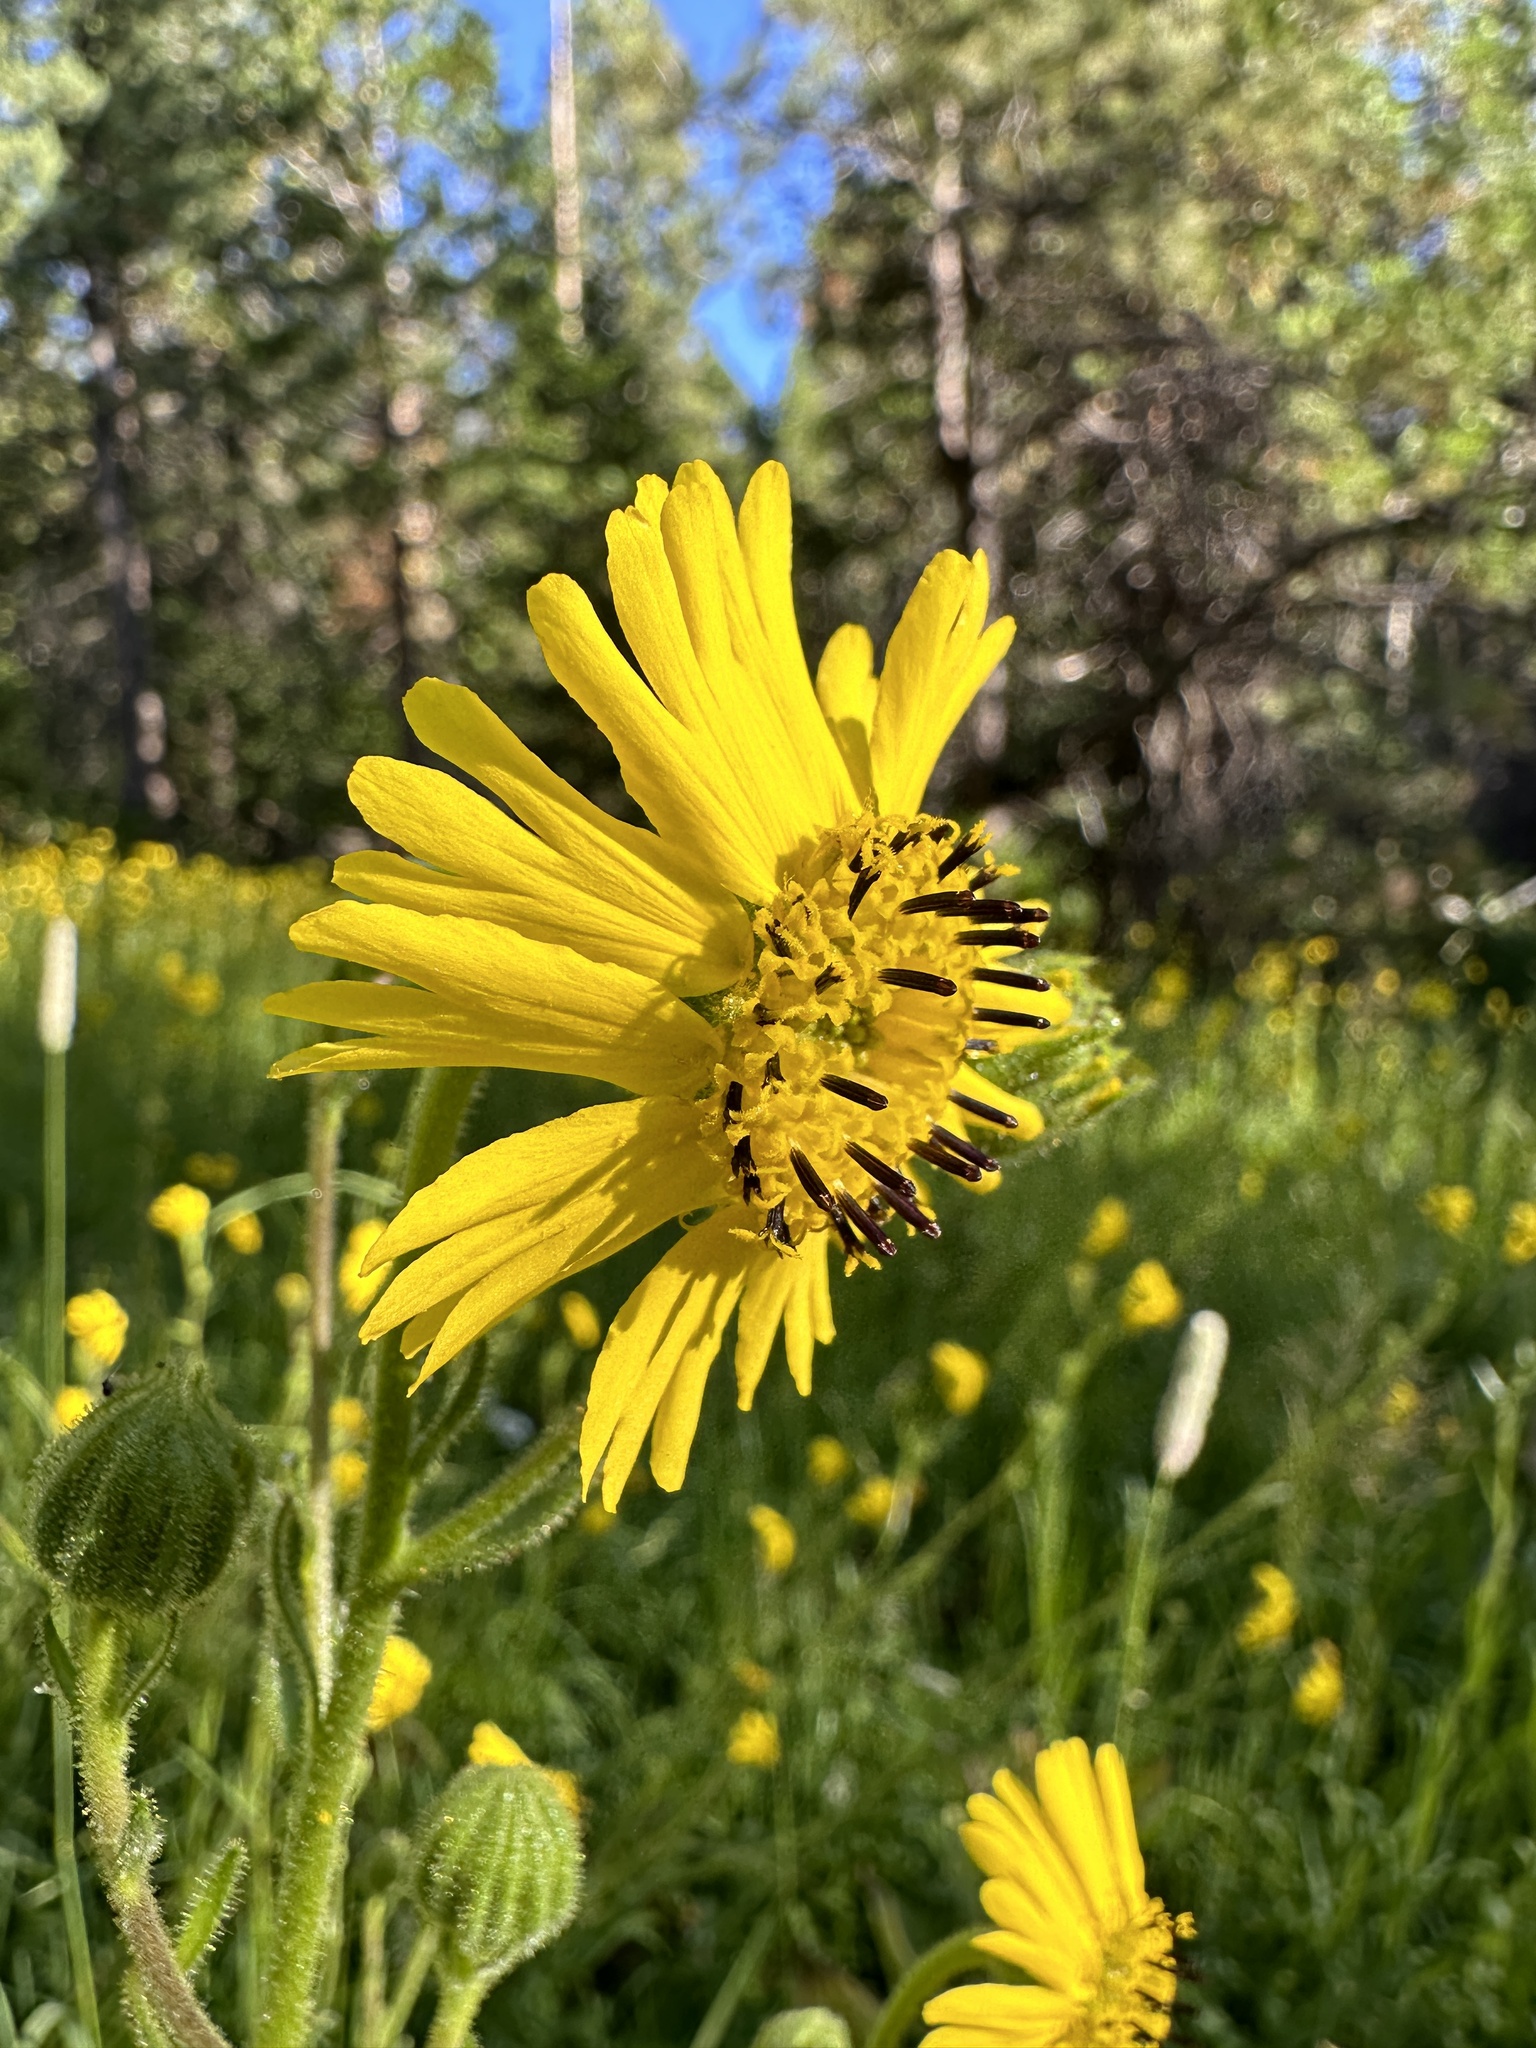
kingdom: Plantae
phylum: Tracheophyta
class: Magnoliopsida
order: Asterales
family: Asteraceae
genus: Kyhosia
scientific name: Kyhosia bolanderi
